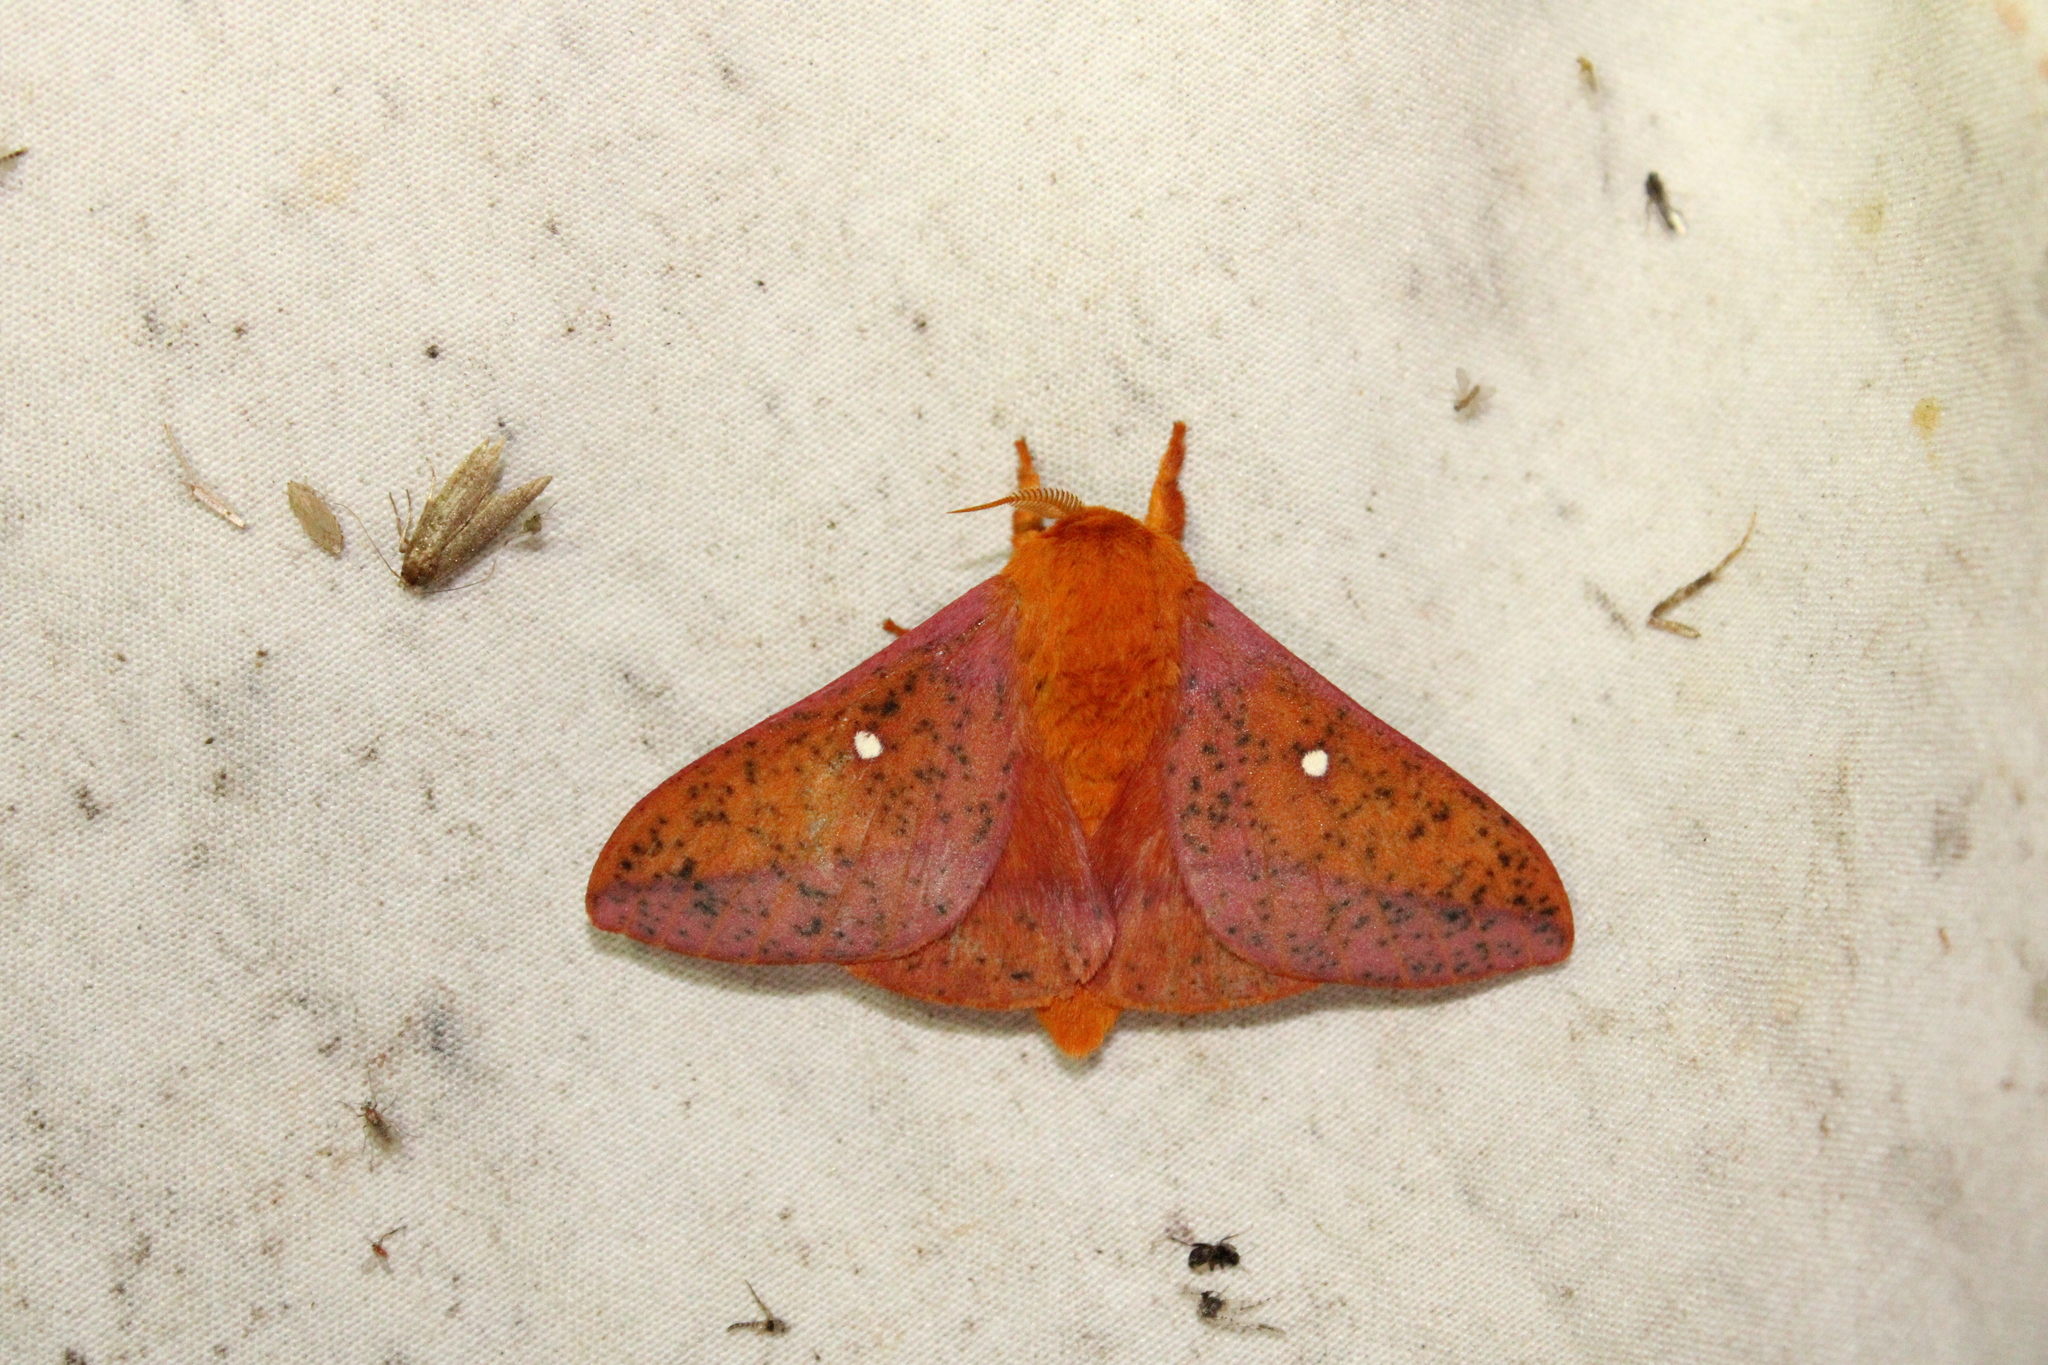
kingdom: Animalia
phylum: Arthropoda
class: Insecta
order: Lepidoptera
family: Saturniidae
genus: Anisota
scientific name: Anisota stigma
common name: Spiny oakworm moth
